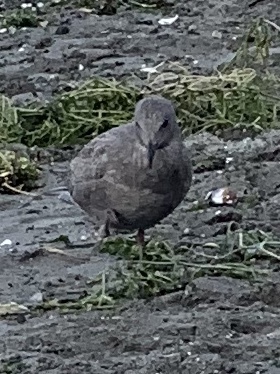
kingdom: Animalia
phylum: Chordata
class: Aves
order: Charadriiformes
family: Laridae
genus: Larus
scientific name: Larus
